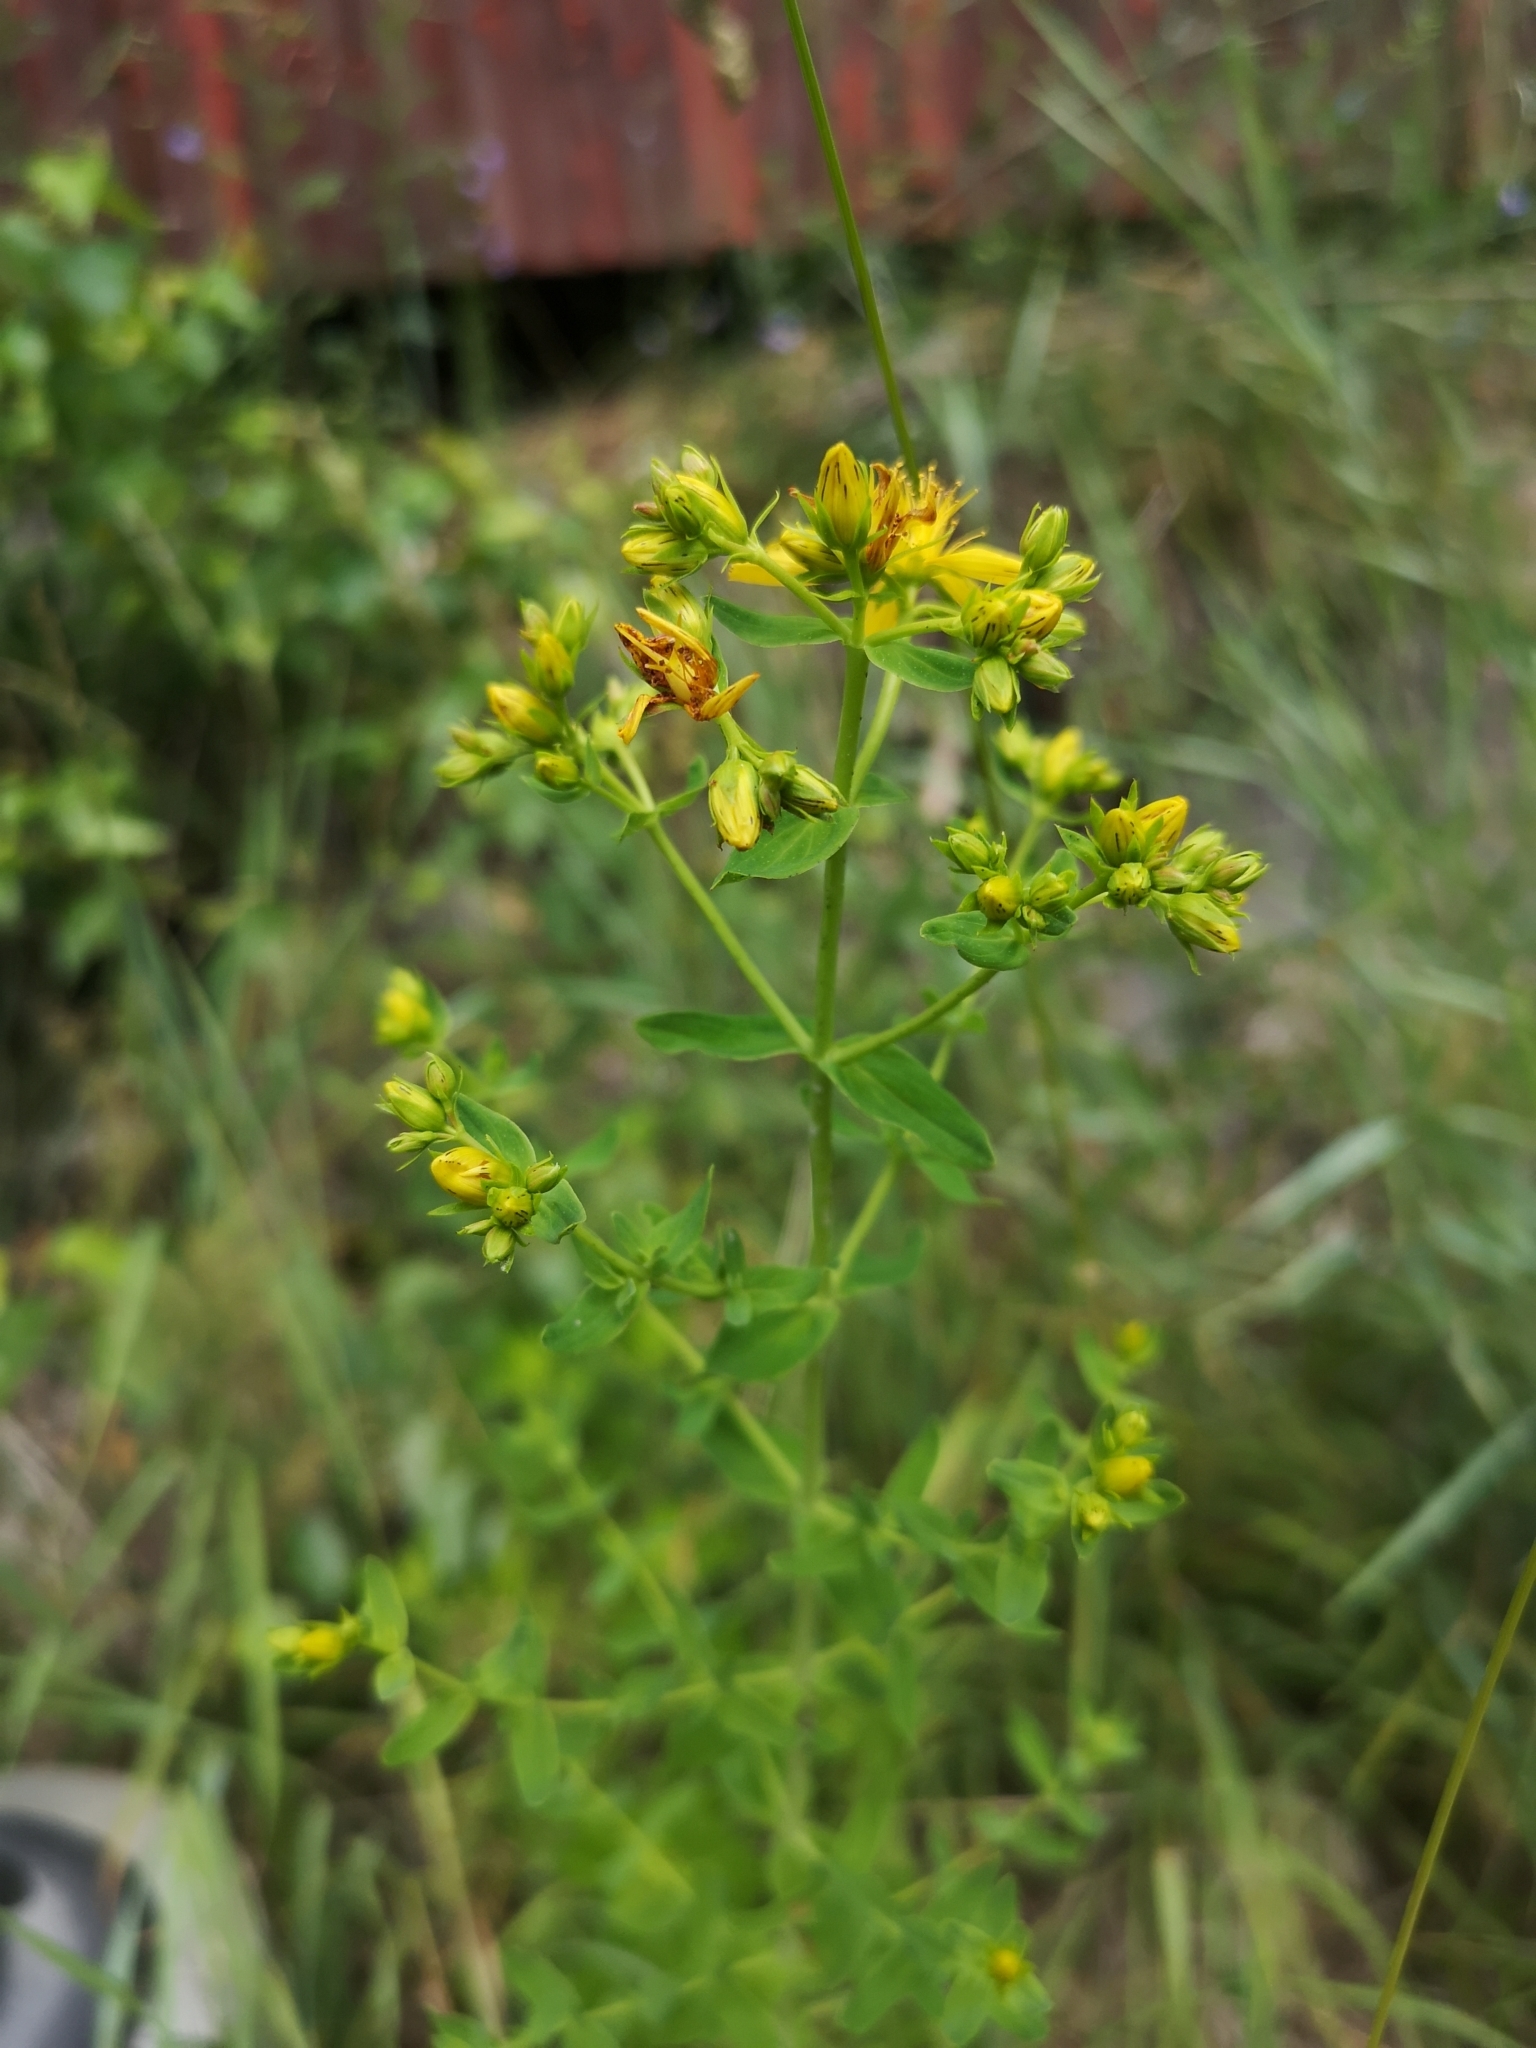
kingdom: Plantae
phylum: Tracheophyta
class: Magnoliopsida
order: Malpighiales
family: Hypericaceae
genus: Hypericum
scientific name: Hypericum perforatum
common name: Common st. johnswort
